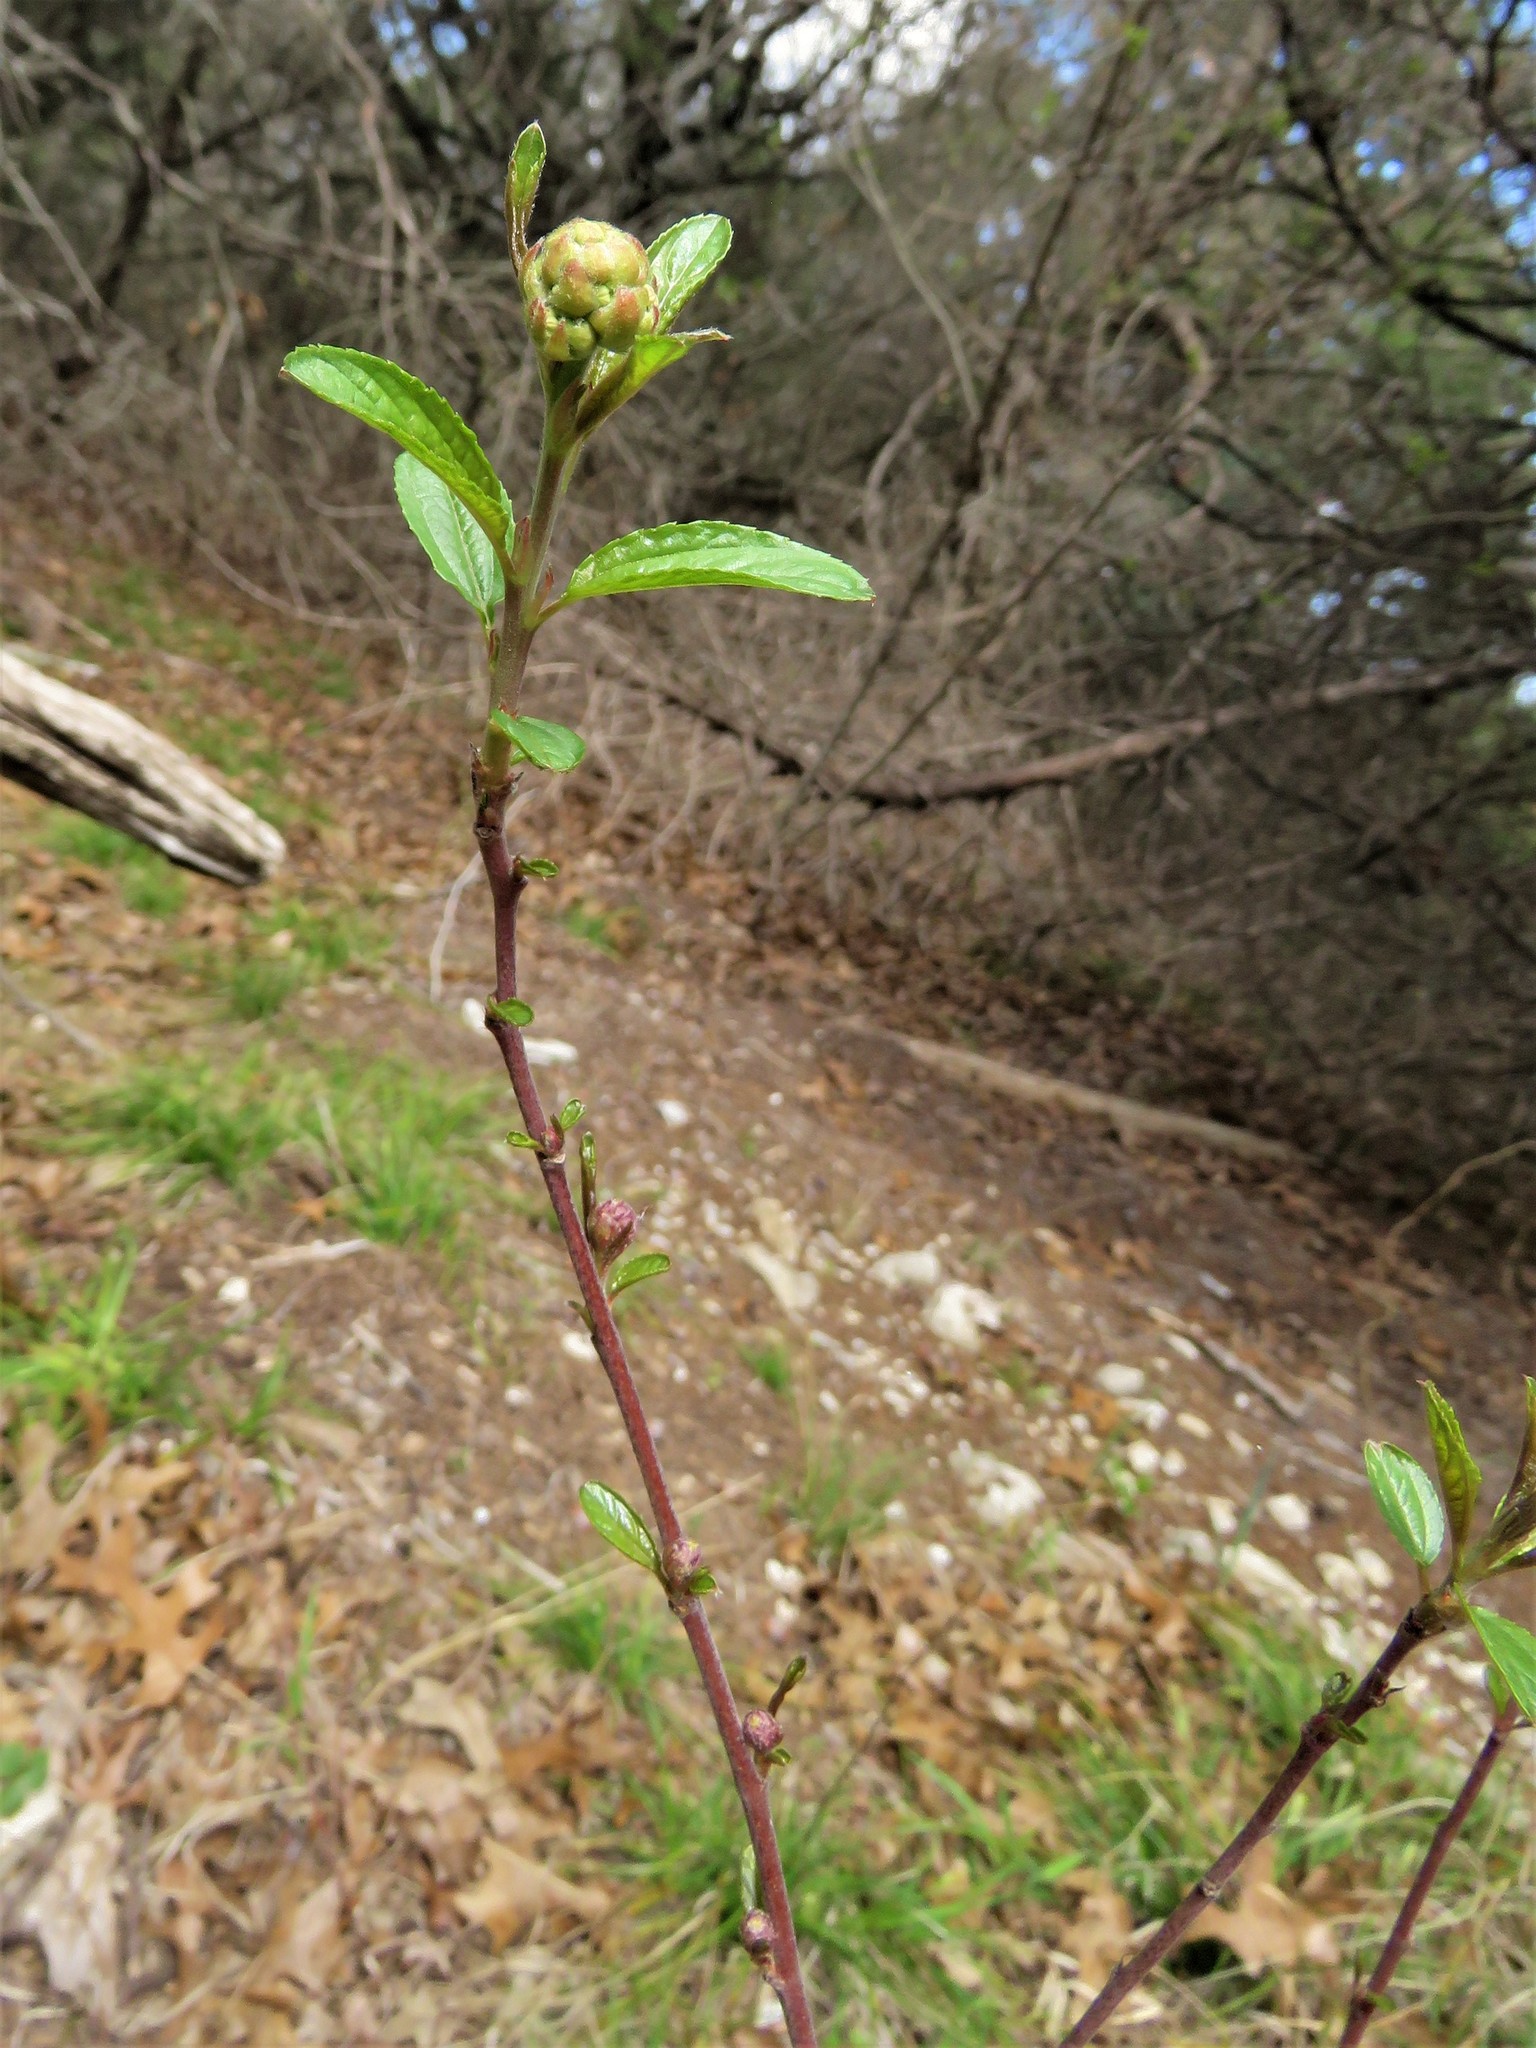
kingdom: Plantae
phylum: Tracheophyta
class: Magnoliopsida
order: Rosales
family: Rhamnaceae
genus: Ceanothus
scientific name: Ceanothus herbaceus
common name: Inland ceanothus
